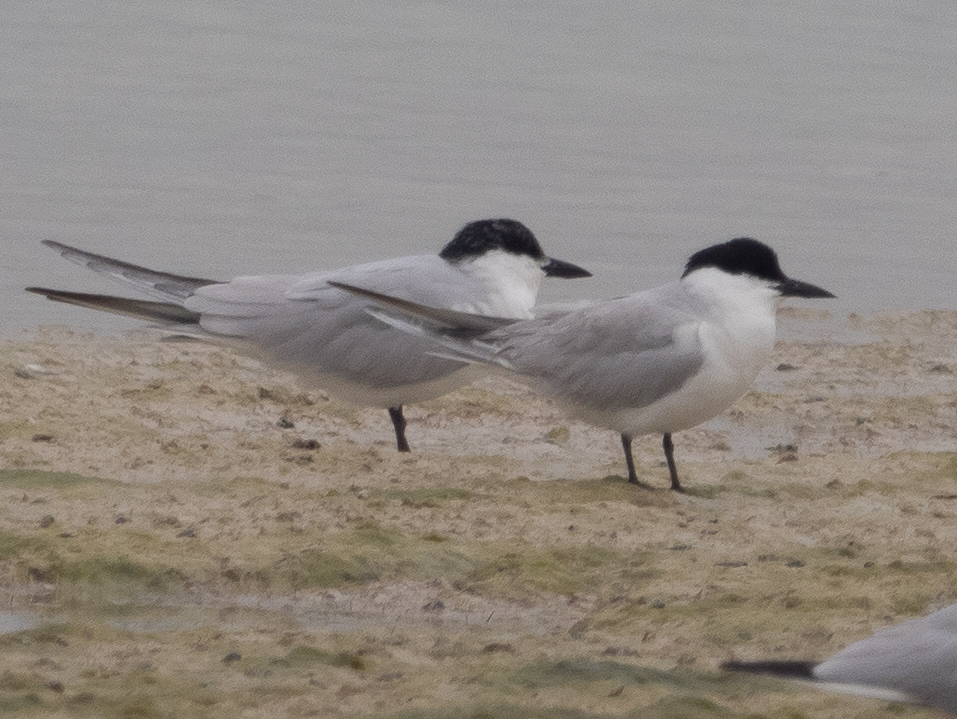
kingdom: Animalia
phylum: Chordata
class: Aves
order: Charadriiformes
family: Laridae
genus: Gelochelidon
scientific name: Gelochelidon nilotica
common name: Gull-billed tern
